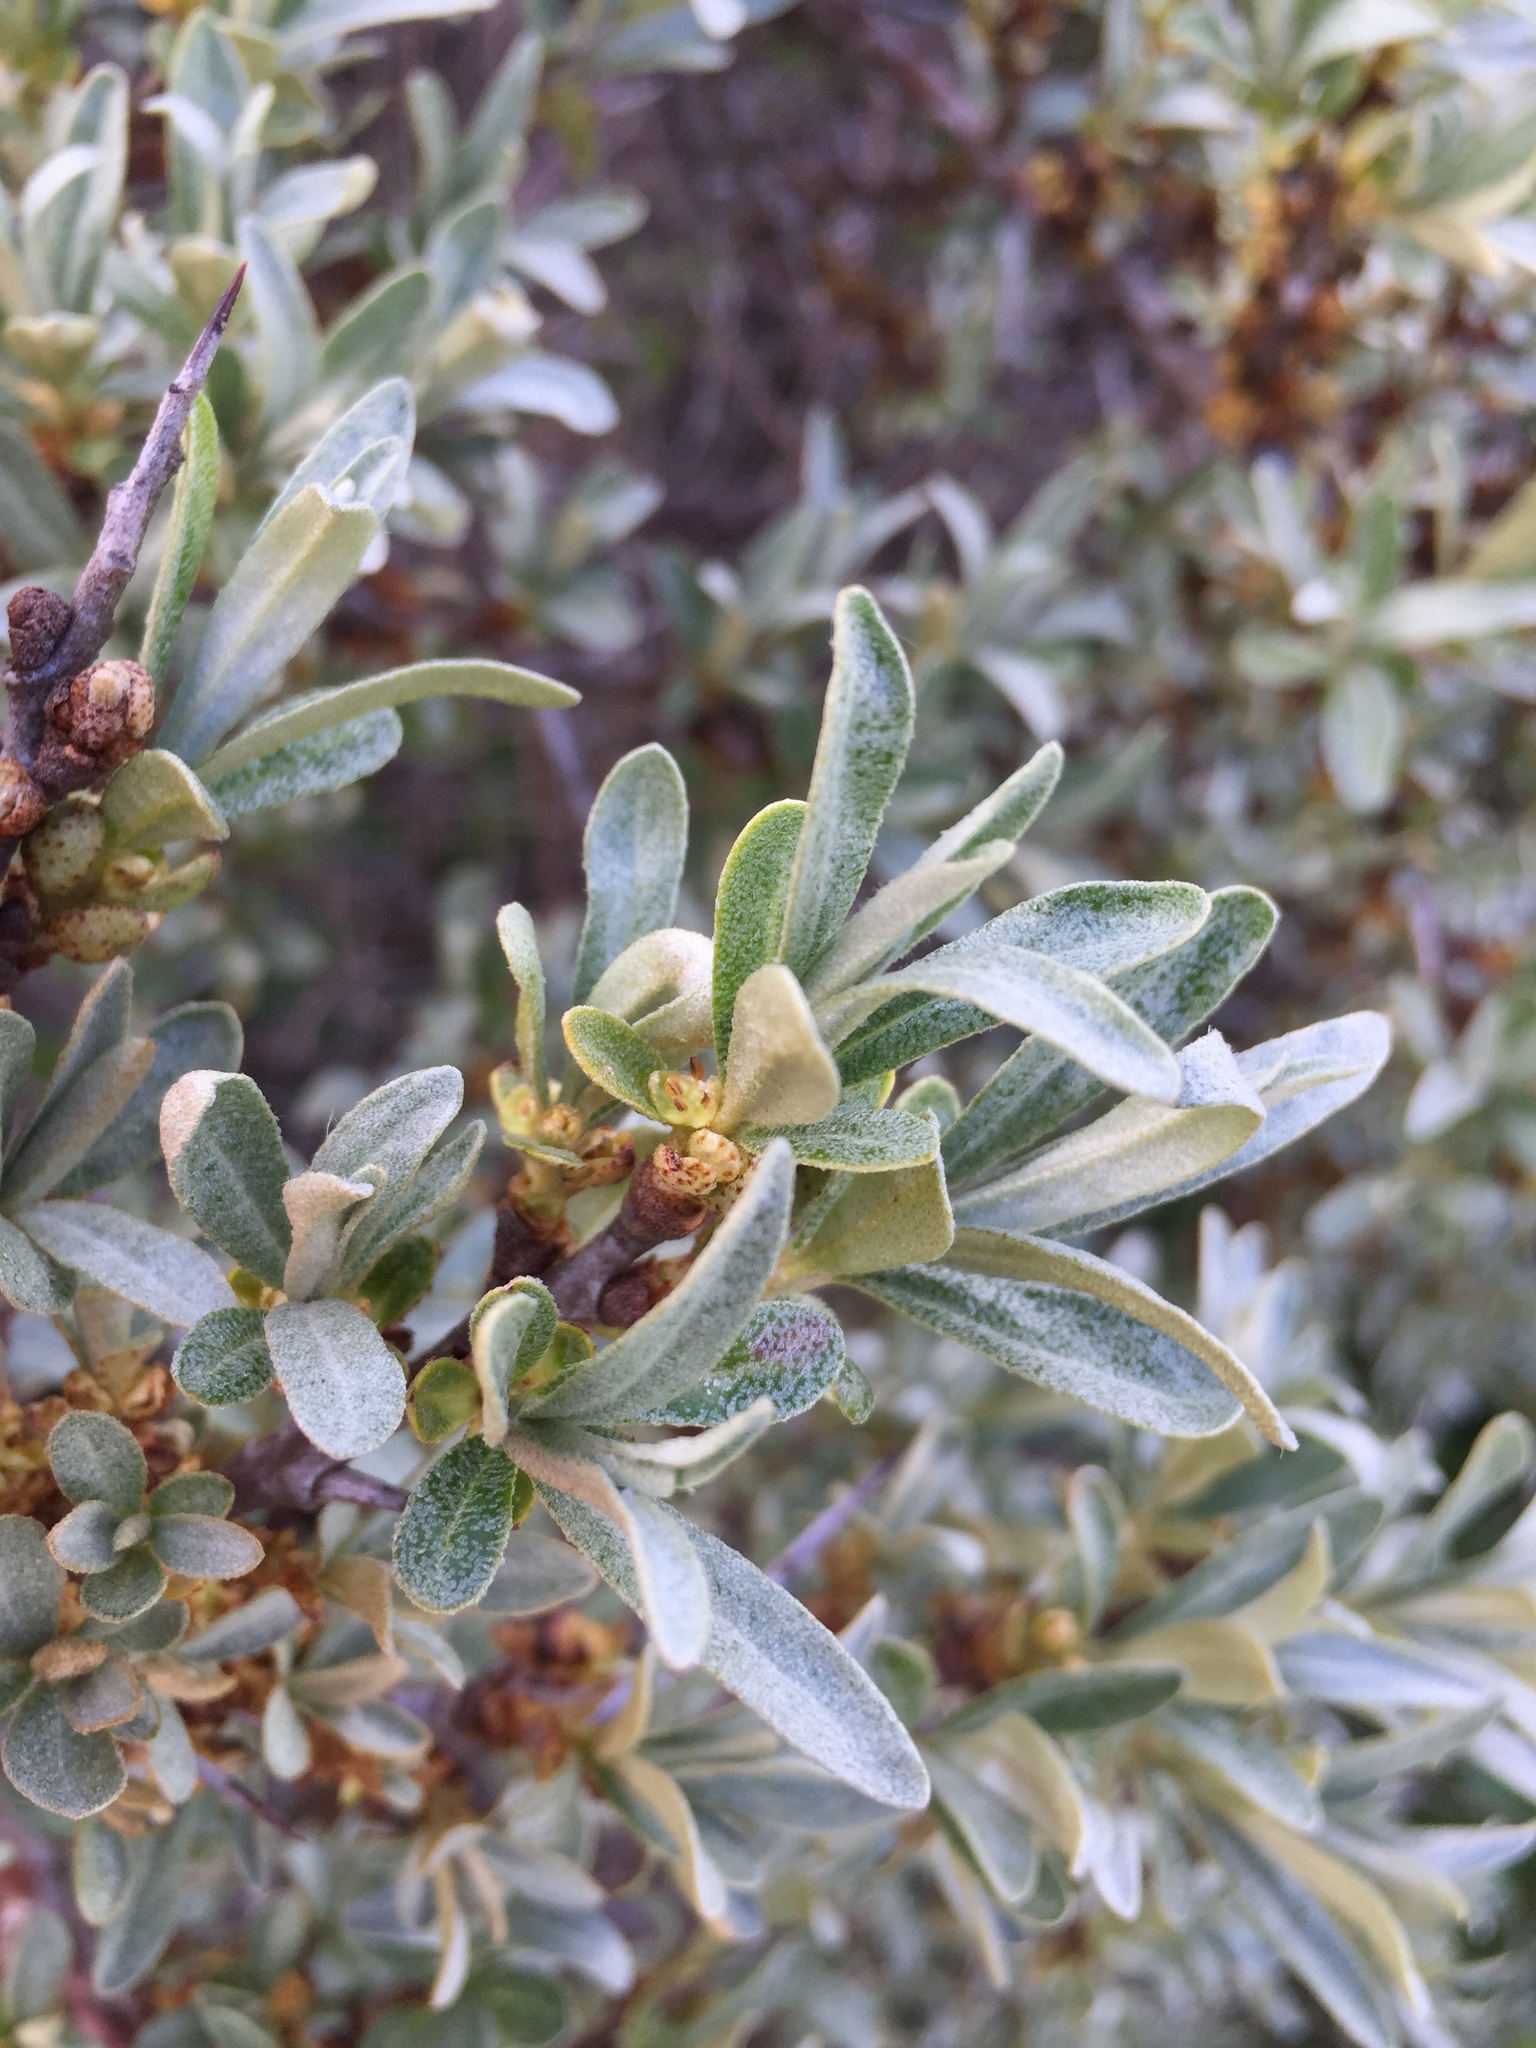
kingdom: Plantae
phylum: Tracheophyta
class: Magnoliopsida
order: Rosales
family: Elaeagnaceae
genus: Hippophae
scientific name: Hippophae rhamnoides
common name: Sea-buckthorn
